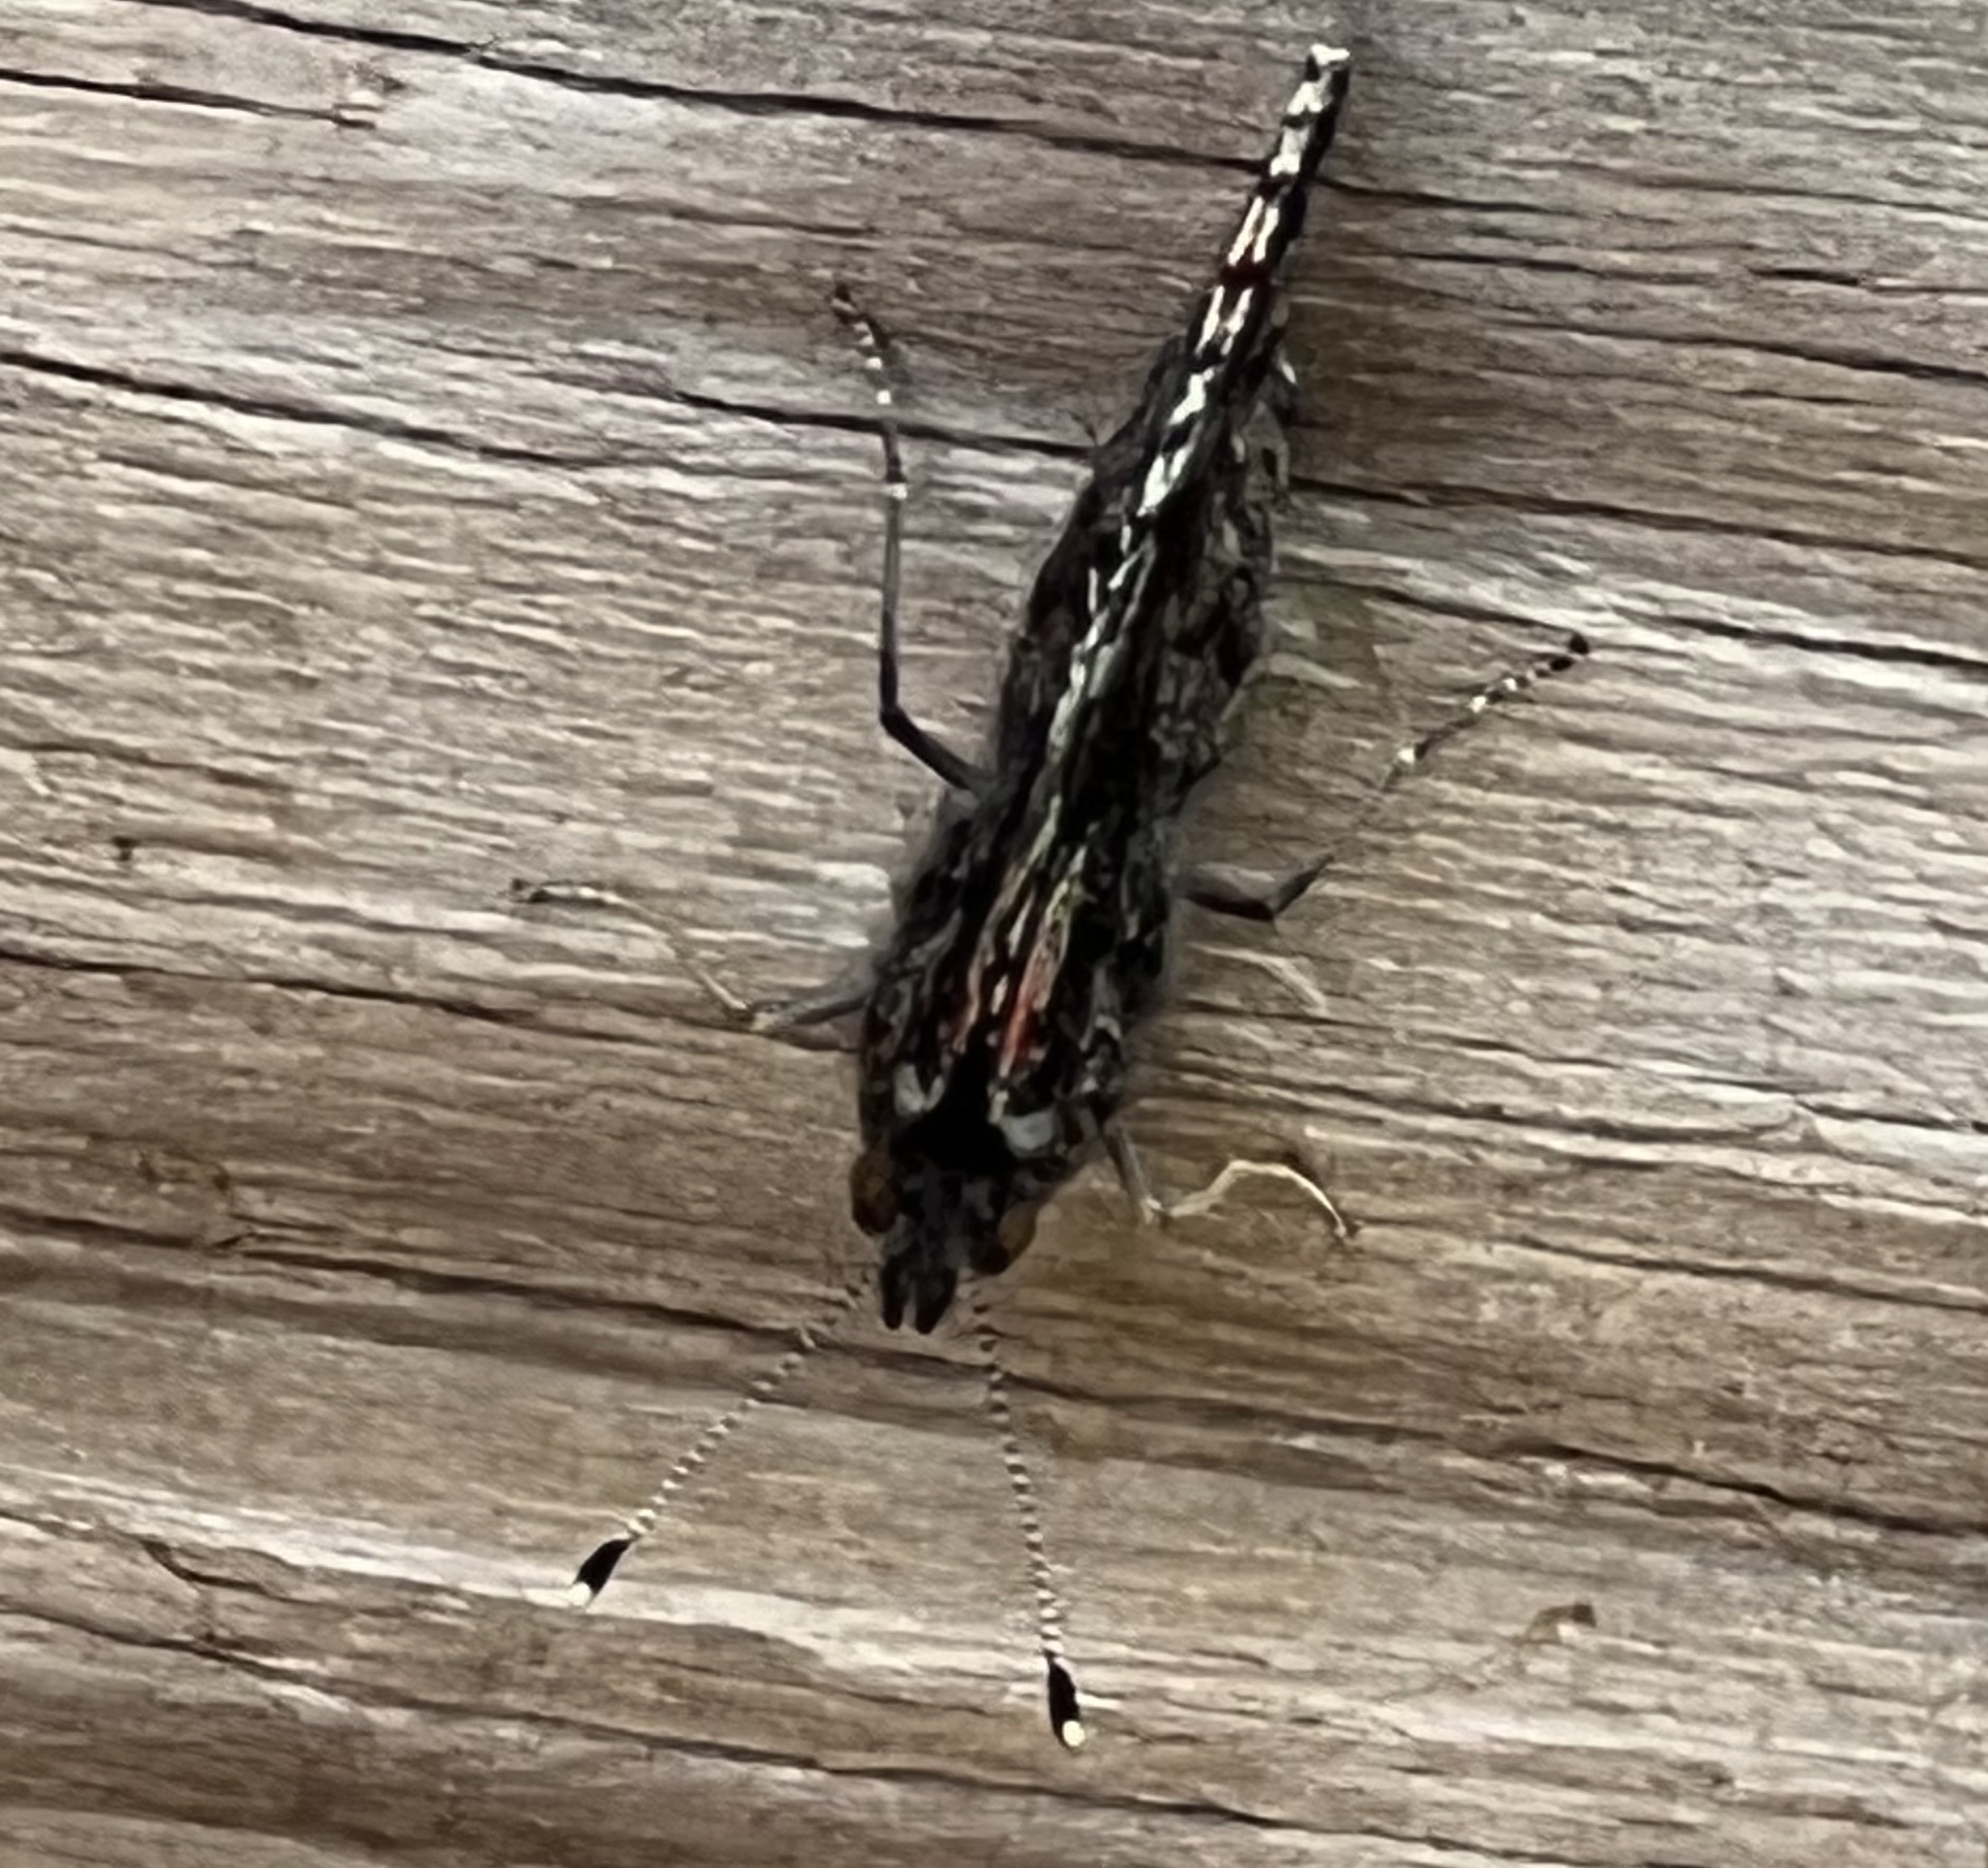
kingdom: Animalia
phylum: Arthropoda
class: Insecta
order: Lepidoptera
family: Nymphalidae
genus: Vanessa
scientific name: Vanessa atalanta
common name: Red admiral
